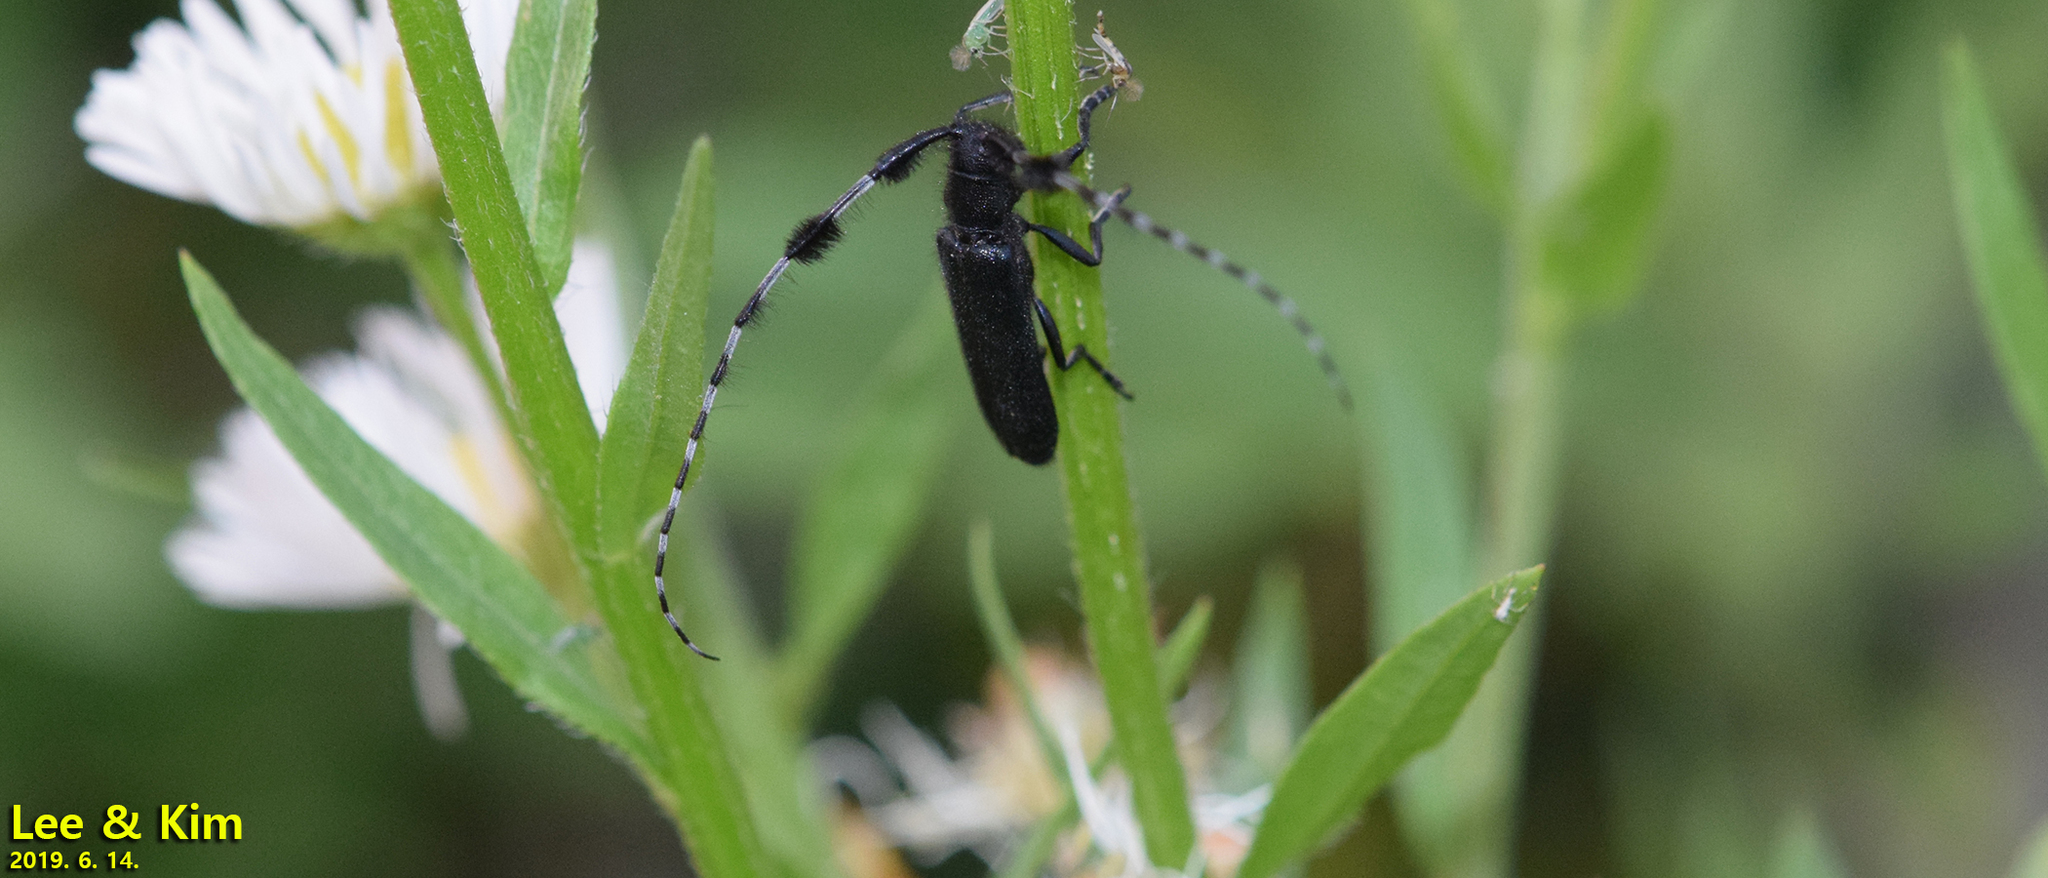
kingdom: Animalia
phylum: Arthropoda
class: Insecta
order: Coleoptera
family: Cerambycidae
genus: Agapanthia
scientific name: Agapanthia amurensis
